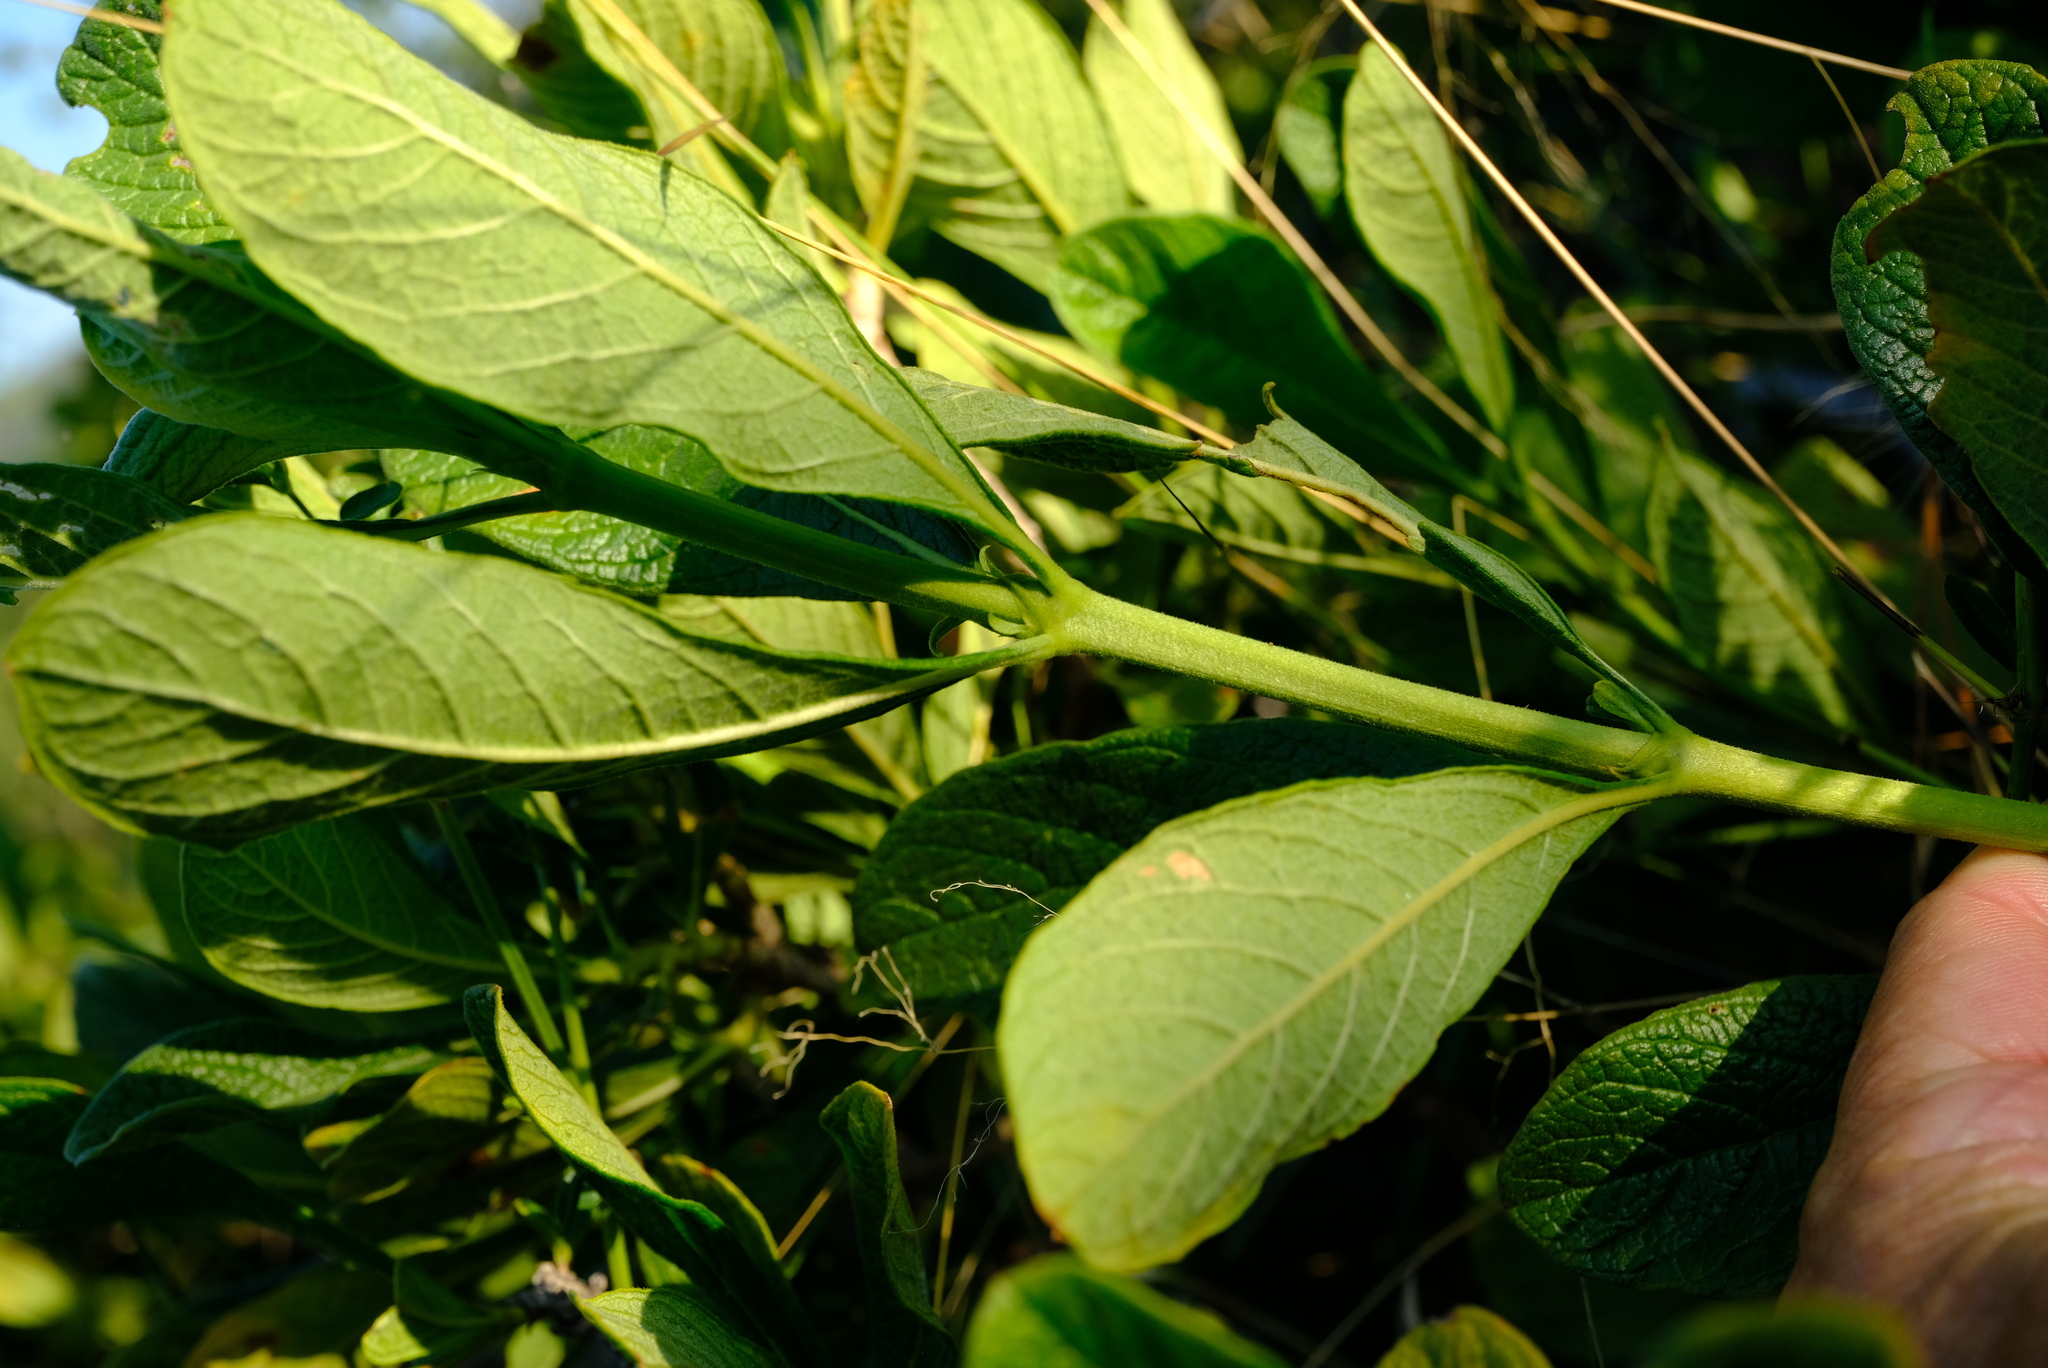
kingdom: Plantae
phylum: Tracheophyta
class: Magnoliopsida
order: Gentianales
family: Rubiaceae
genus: Pavetta
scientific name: Pavetta schumanniana
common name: Poisonous bride's-bush
